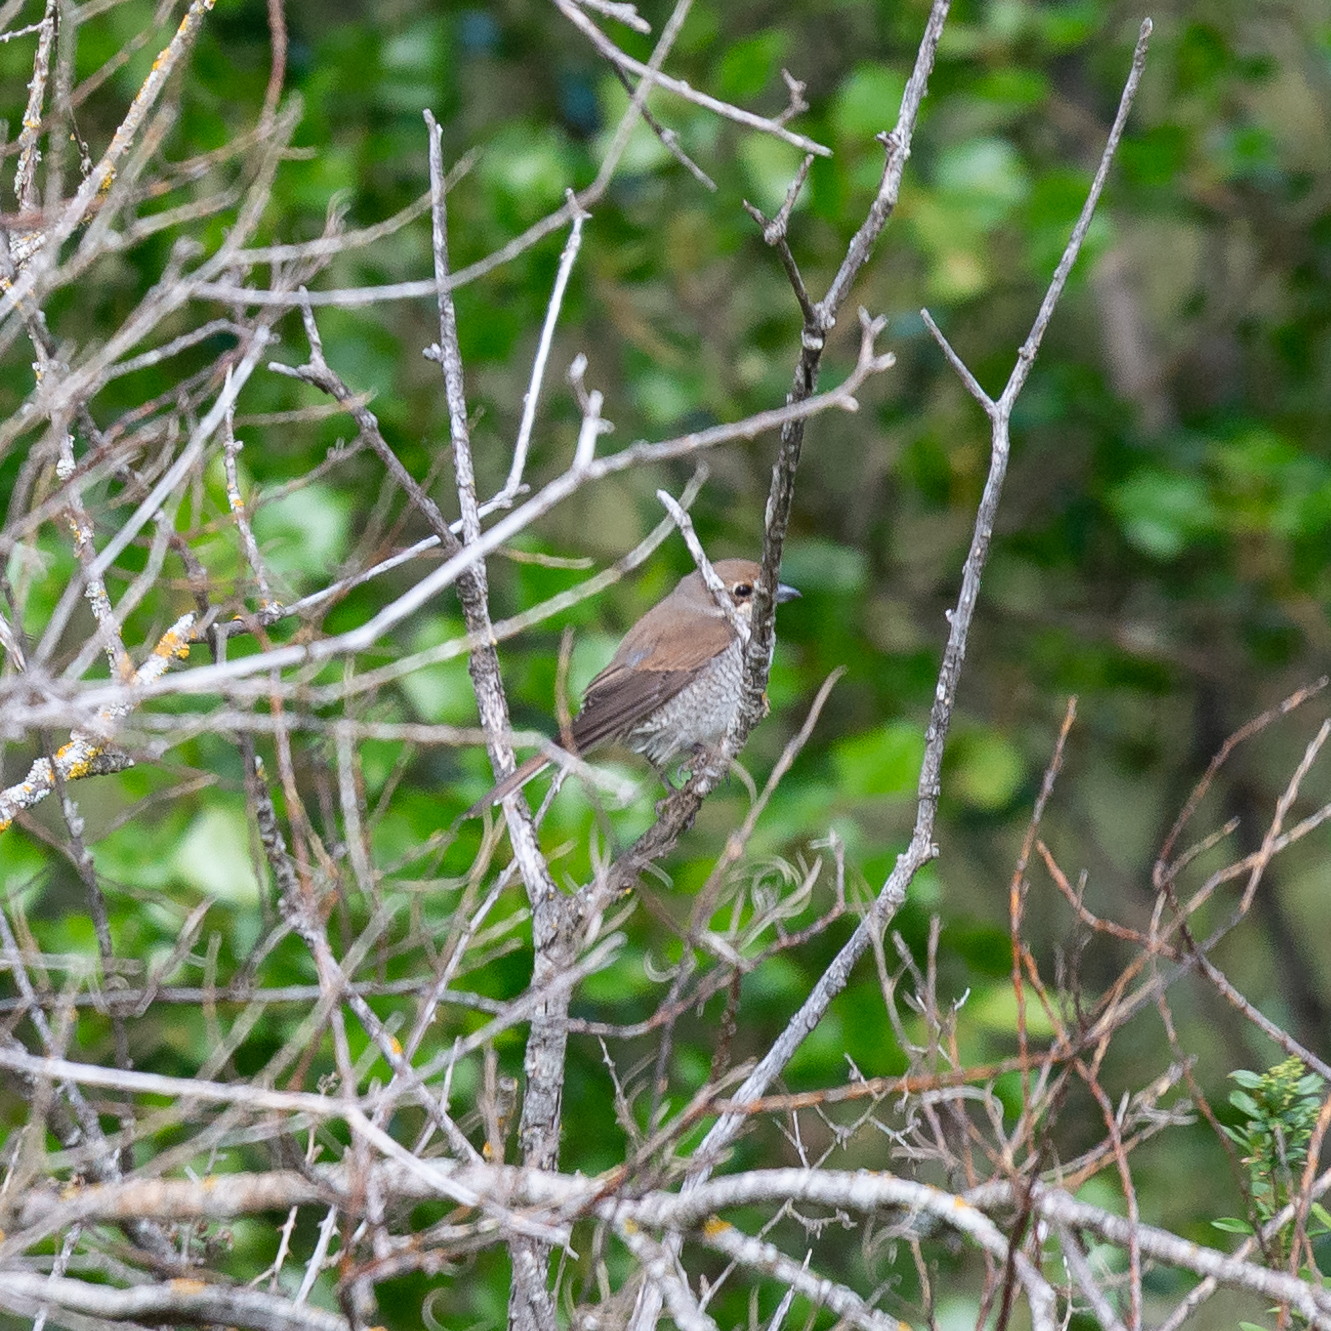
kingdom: Animalia
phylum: Chordata
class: Aves
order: Passeriformes
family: Laniidae
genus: Lanius
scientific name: Lanius collurio
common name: Red-backed shrike
